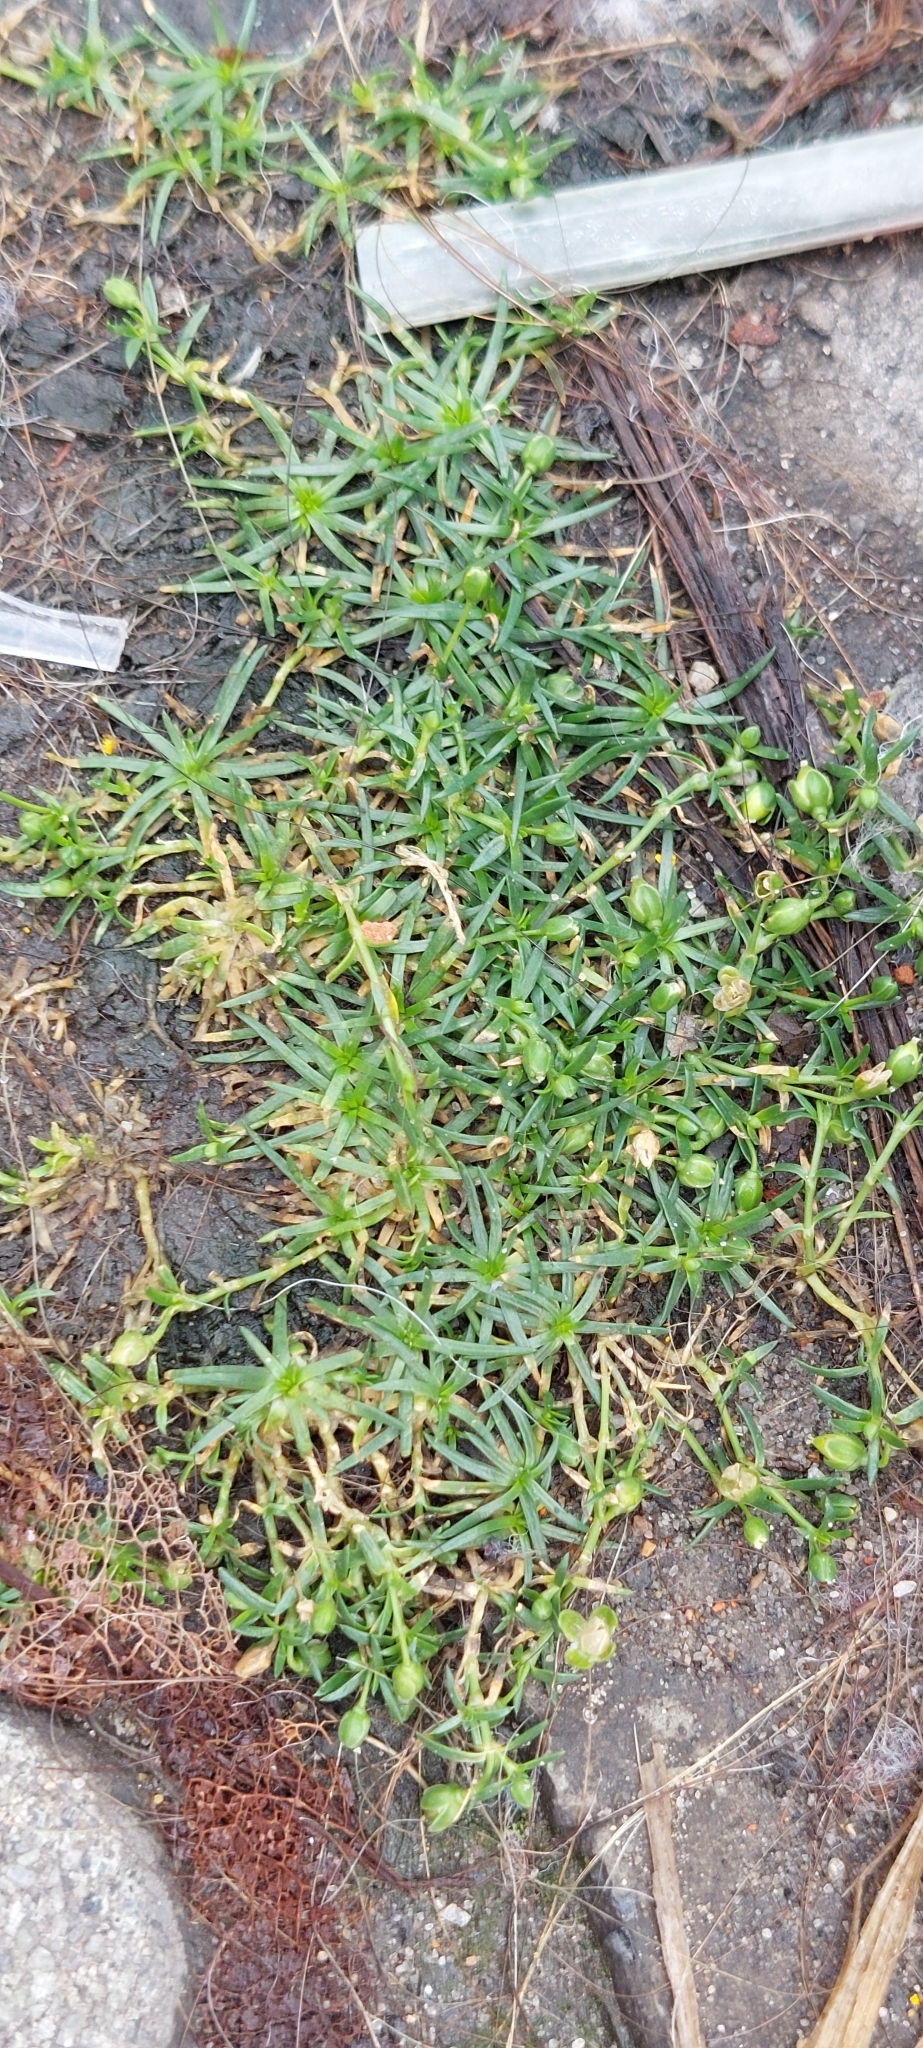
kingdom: Plantae
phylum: Tracheophyta
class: Magnoliopsida
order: Caryophyllales
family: Caryophyllaceae
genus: Sagina
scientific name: Sagina procumbens
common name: Procumbent pearlwort
